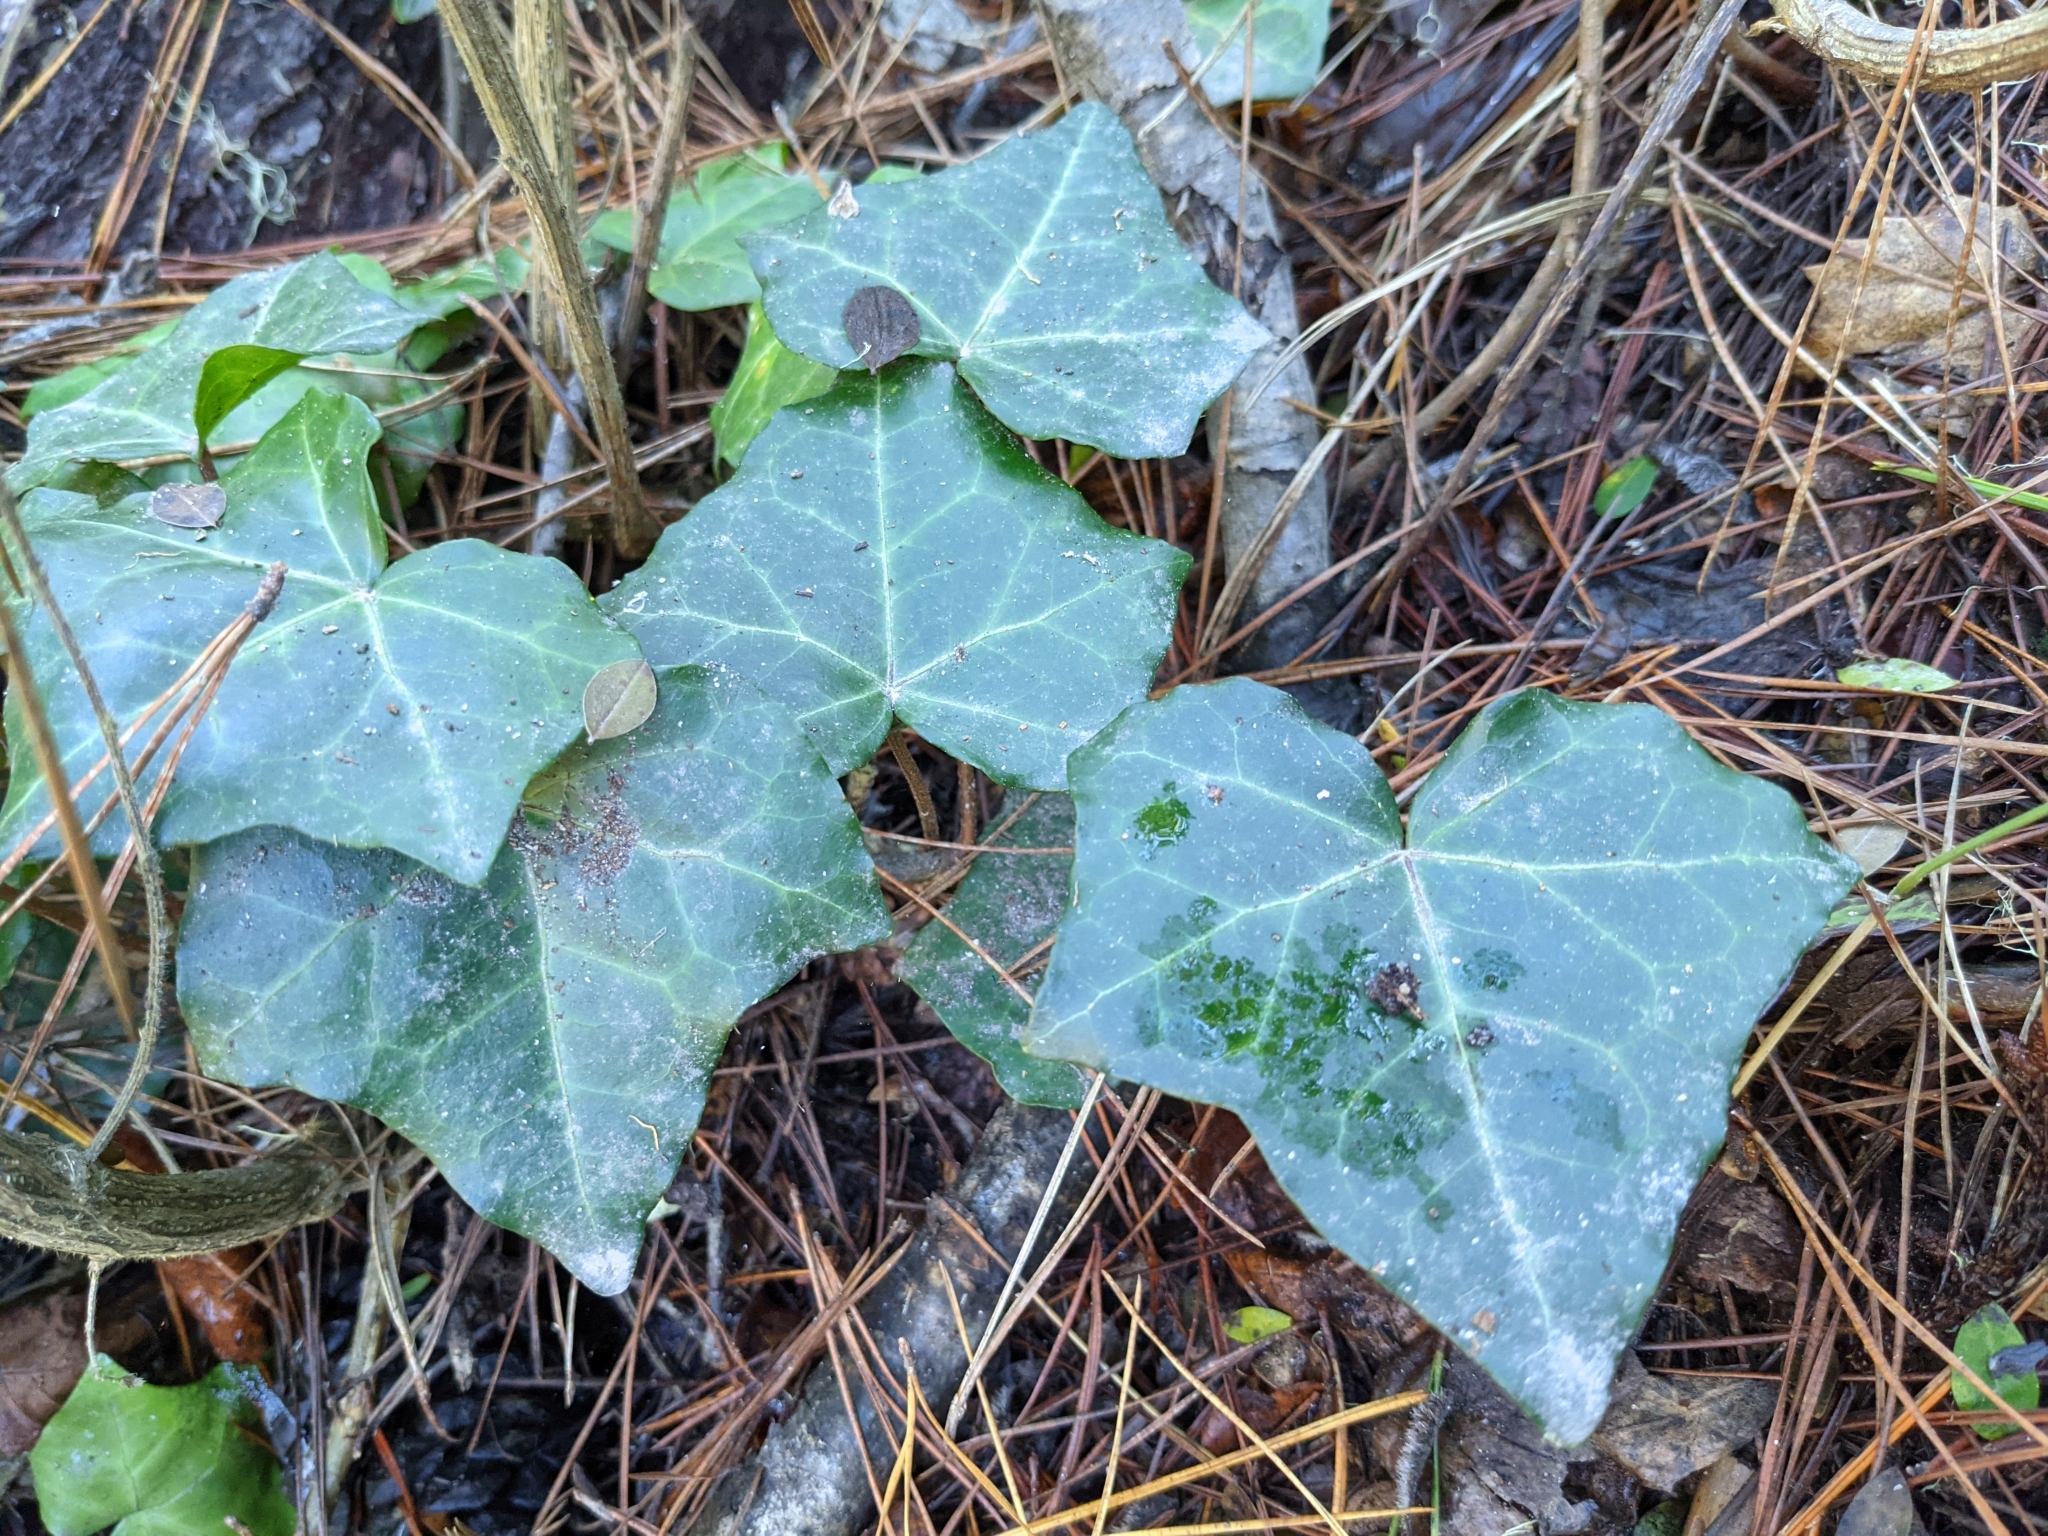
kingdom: Plantae
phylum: Tracheophyta
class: Magnoliopsida
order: Apiales
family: Araliaceae
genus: Hedera
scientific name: Hedera helix
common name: Ivy
